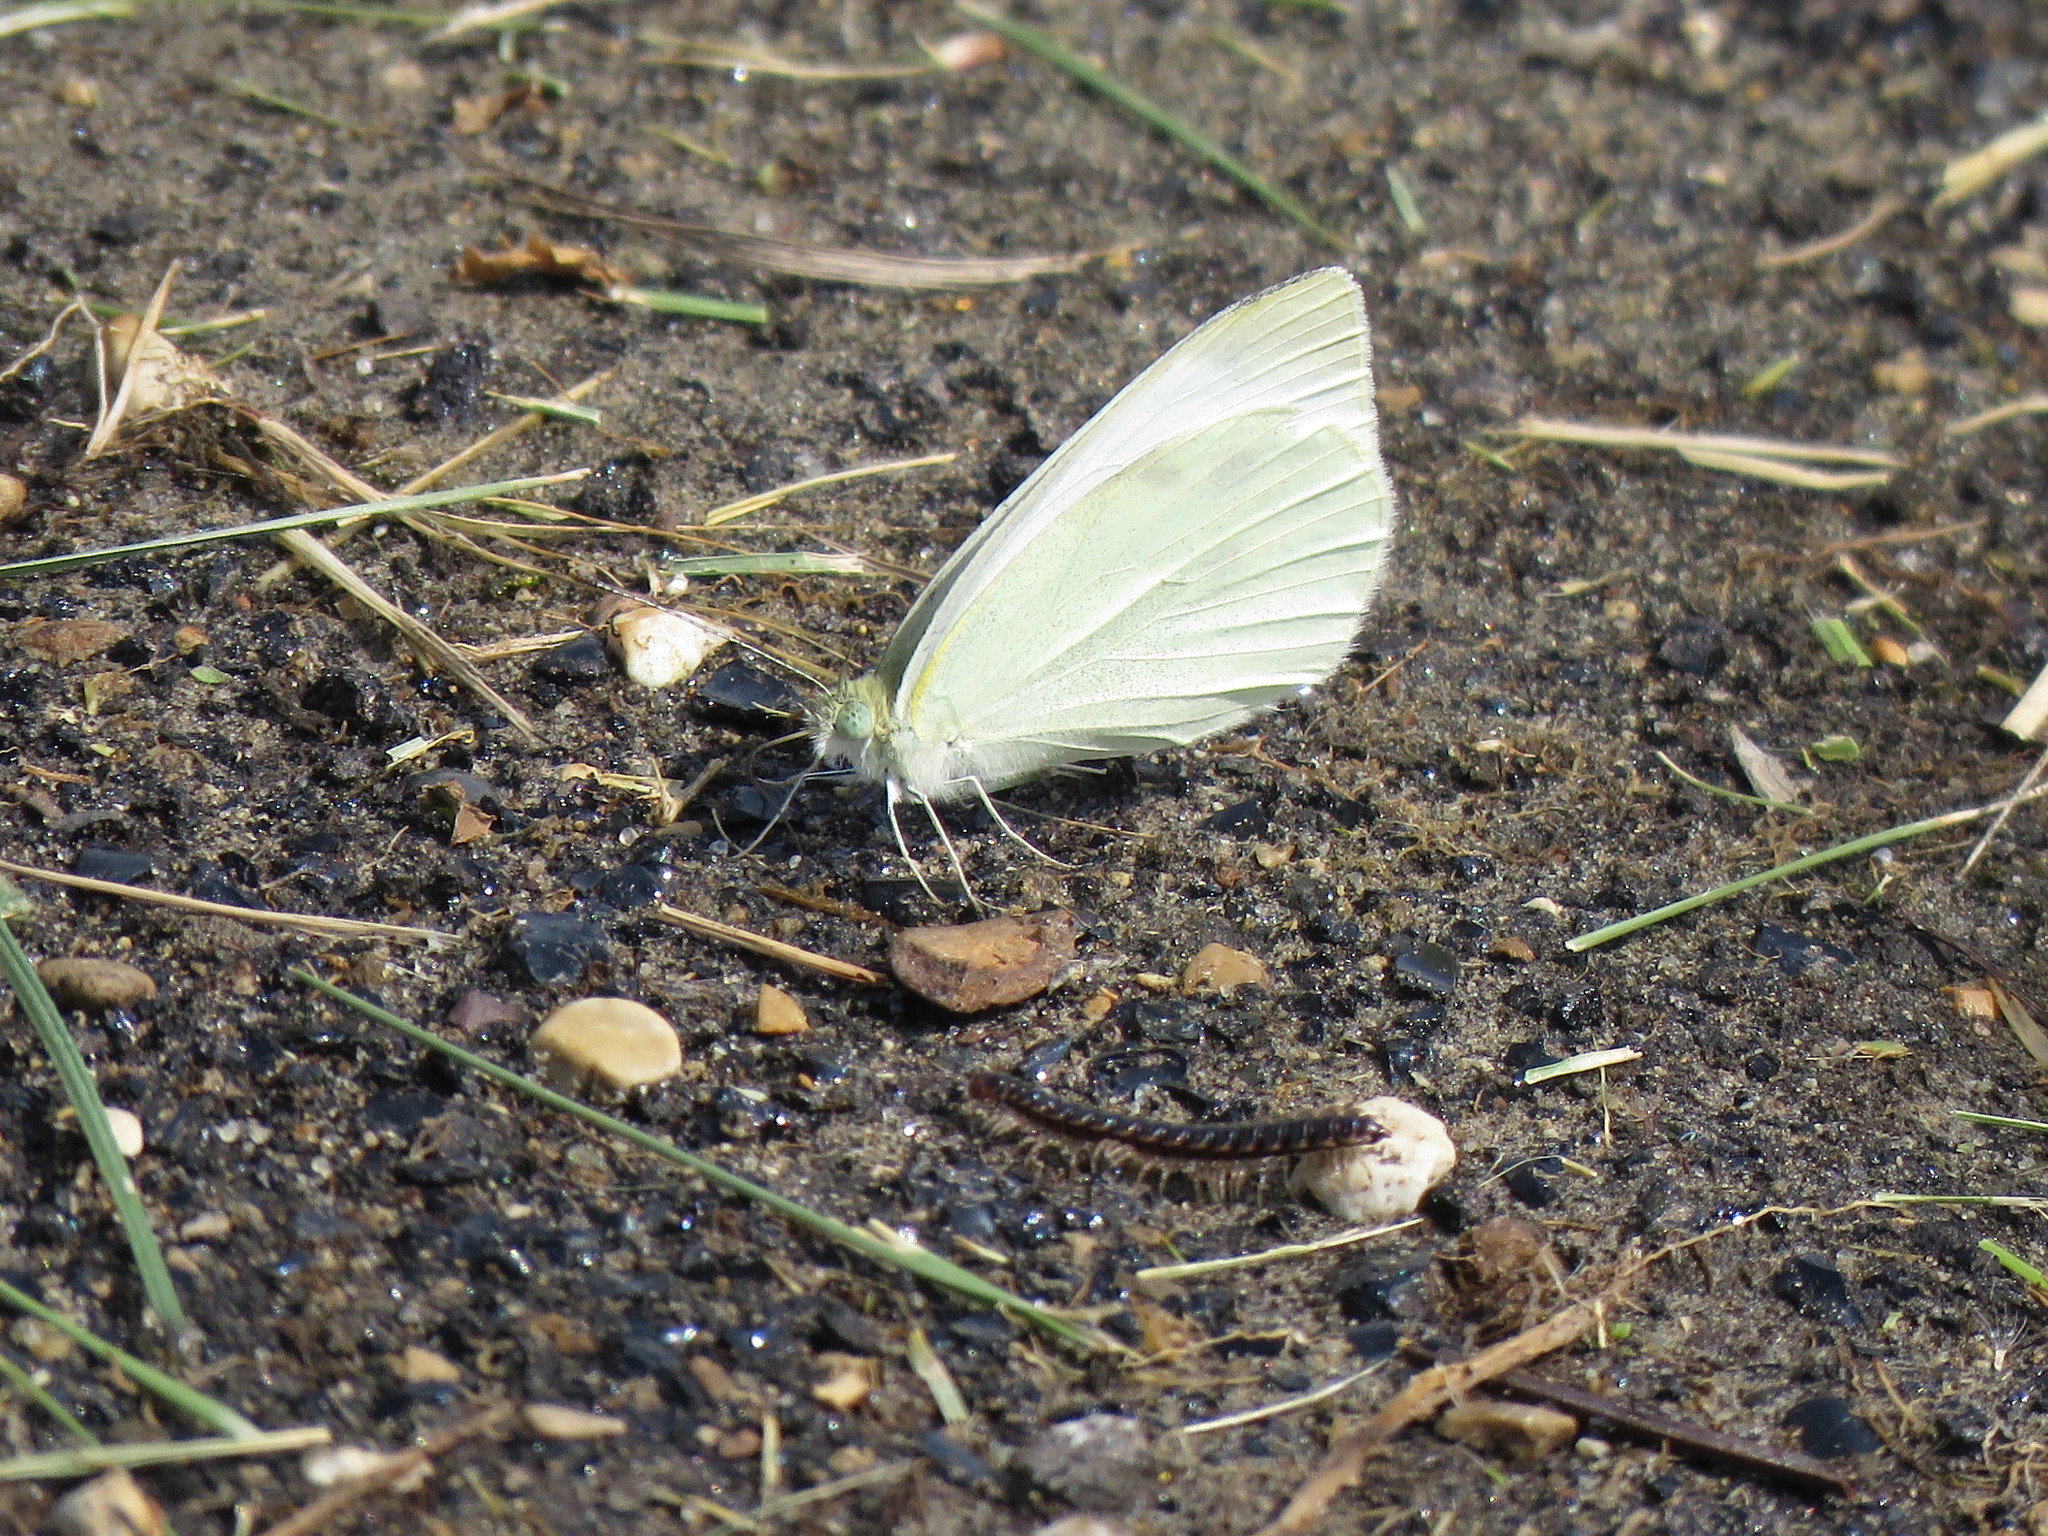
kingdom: Animalia
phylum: Arthropoda
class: Insecta
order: Lepidoptera
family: Pieridae
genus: Pieris
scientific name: Pieris rapae
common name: Small white
